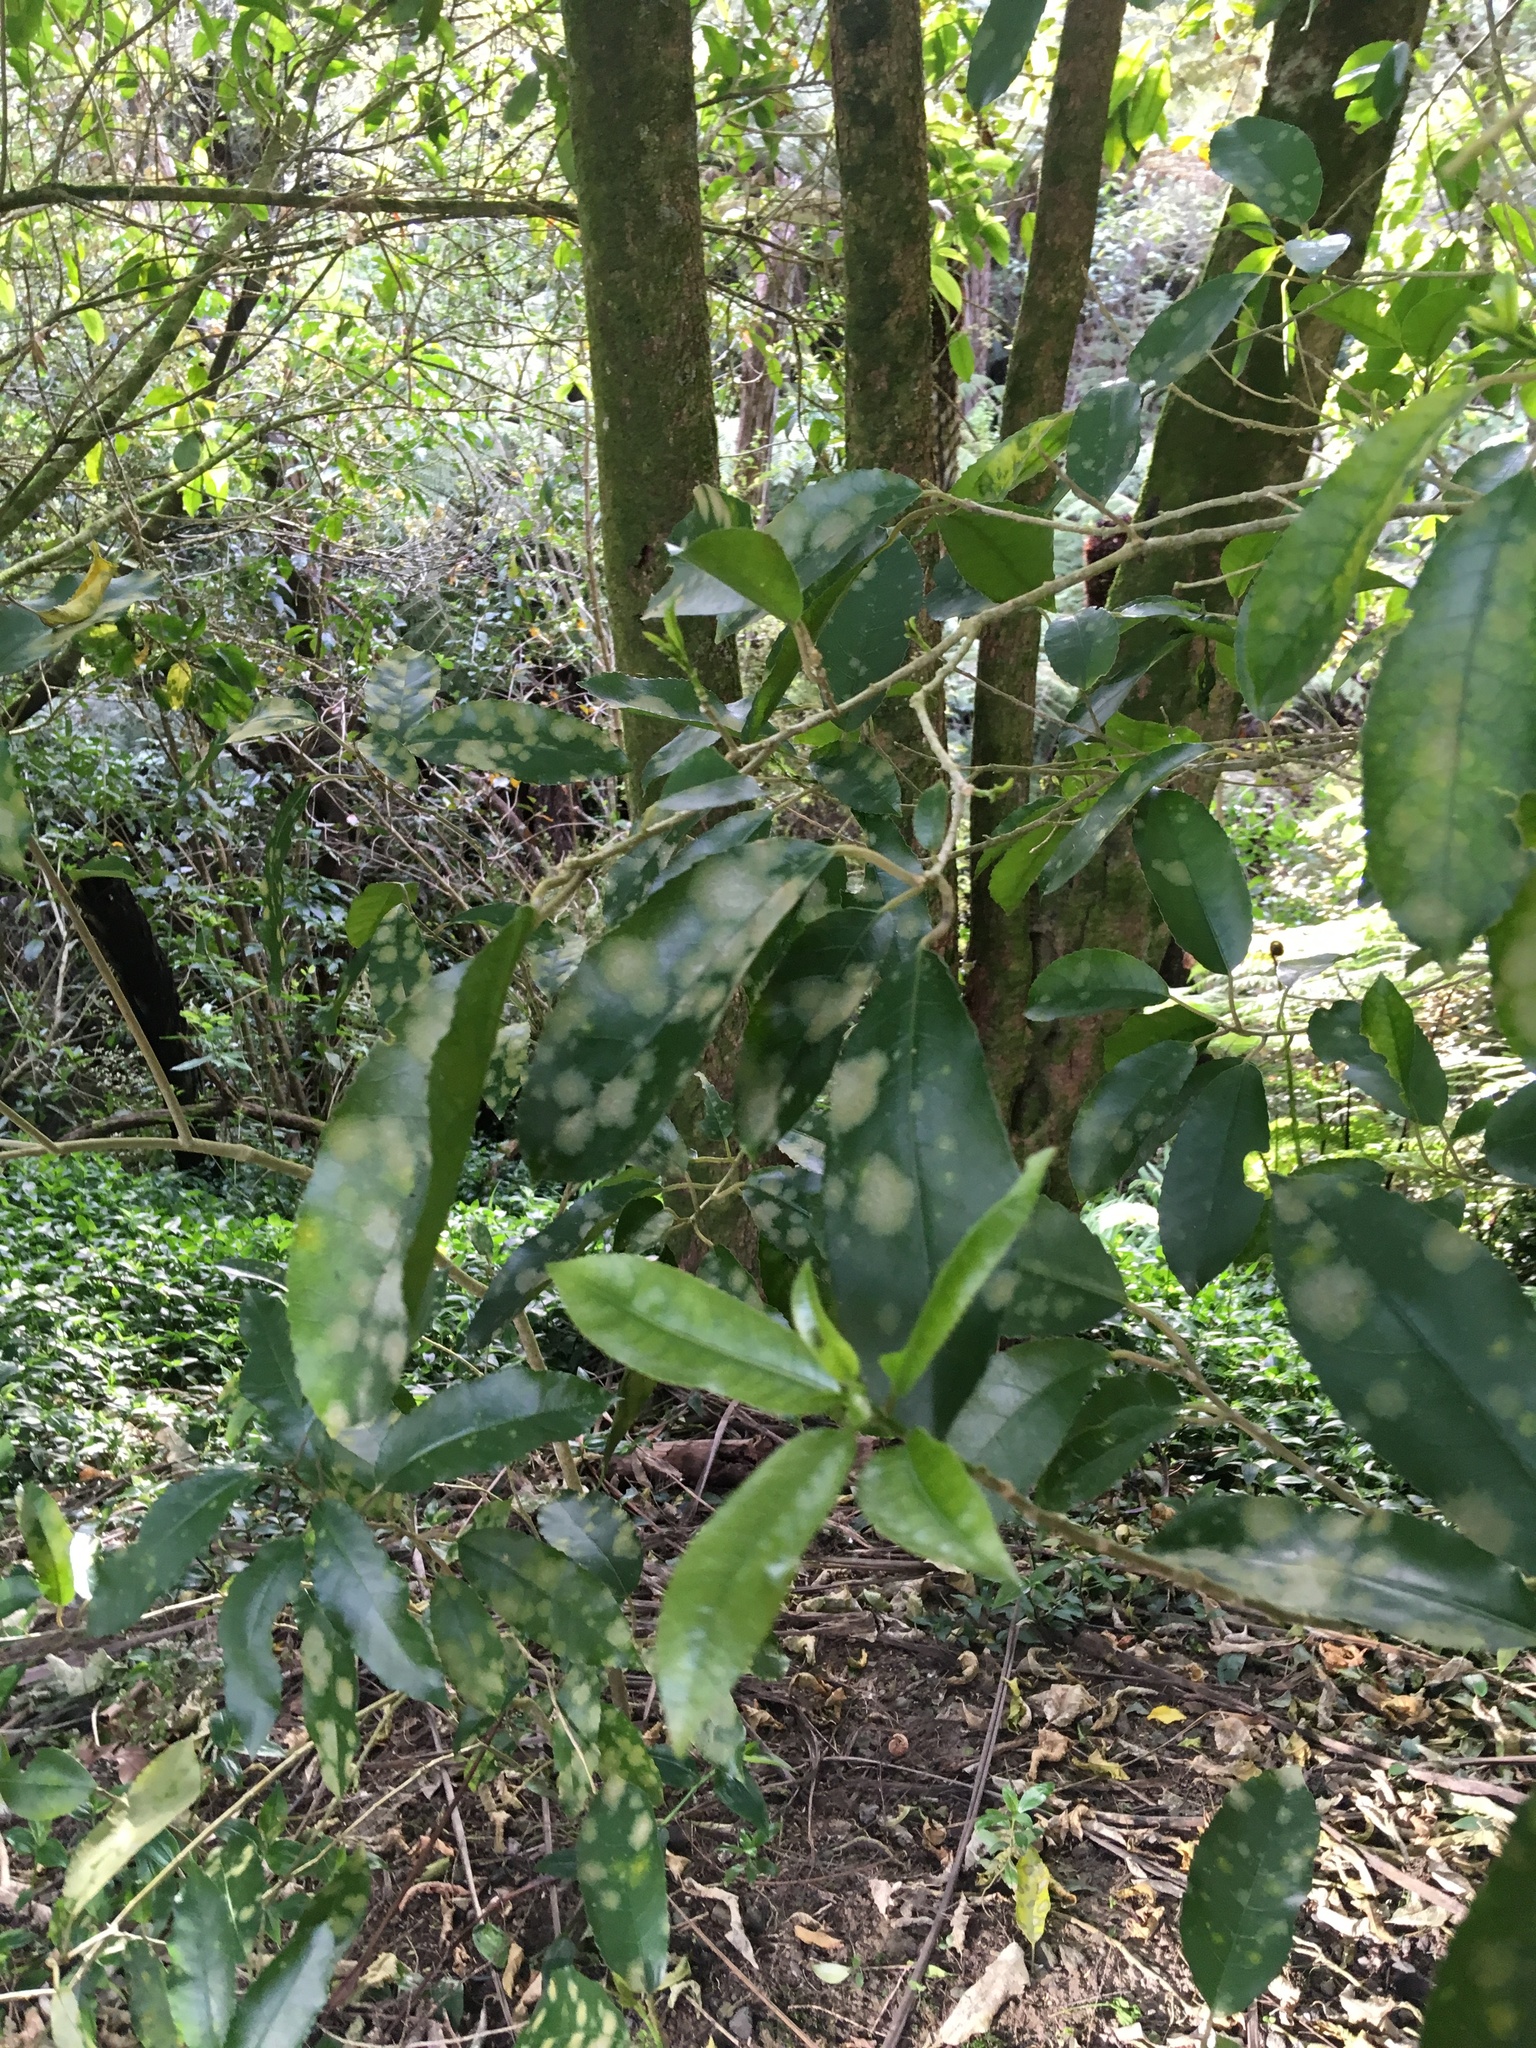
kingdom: Plantae
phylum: Tracheophyta
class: Magnoliopsida
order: Malpighiales
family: Violaceae
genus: Melicytus
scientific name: Melicytus ramiflorus
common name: Mahoe
